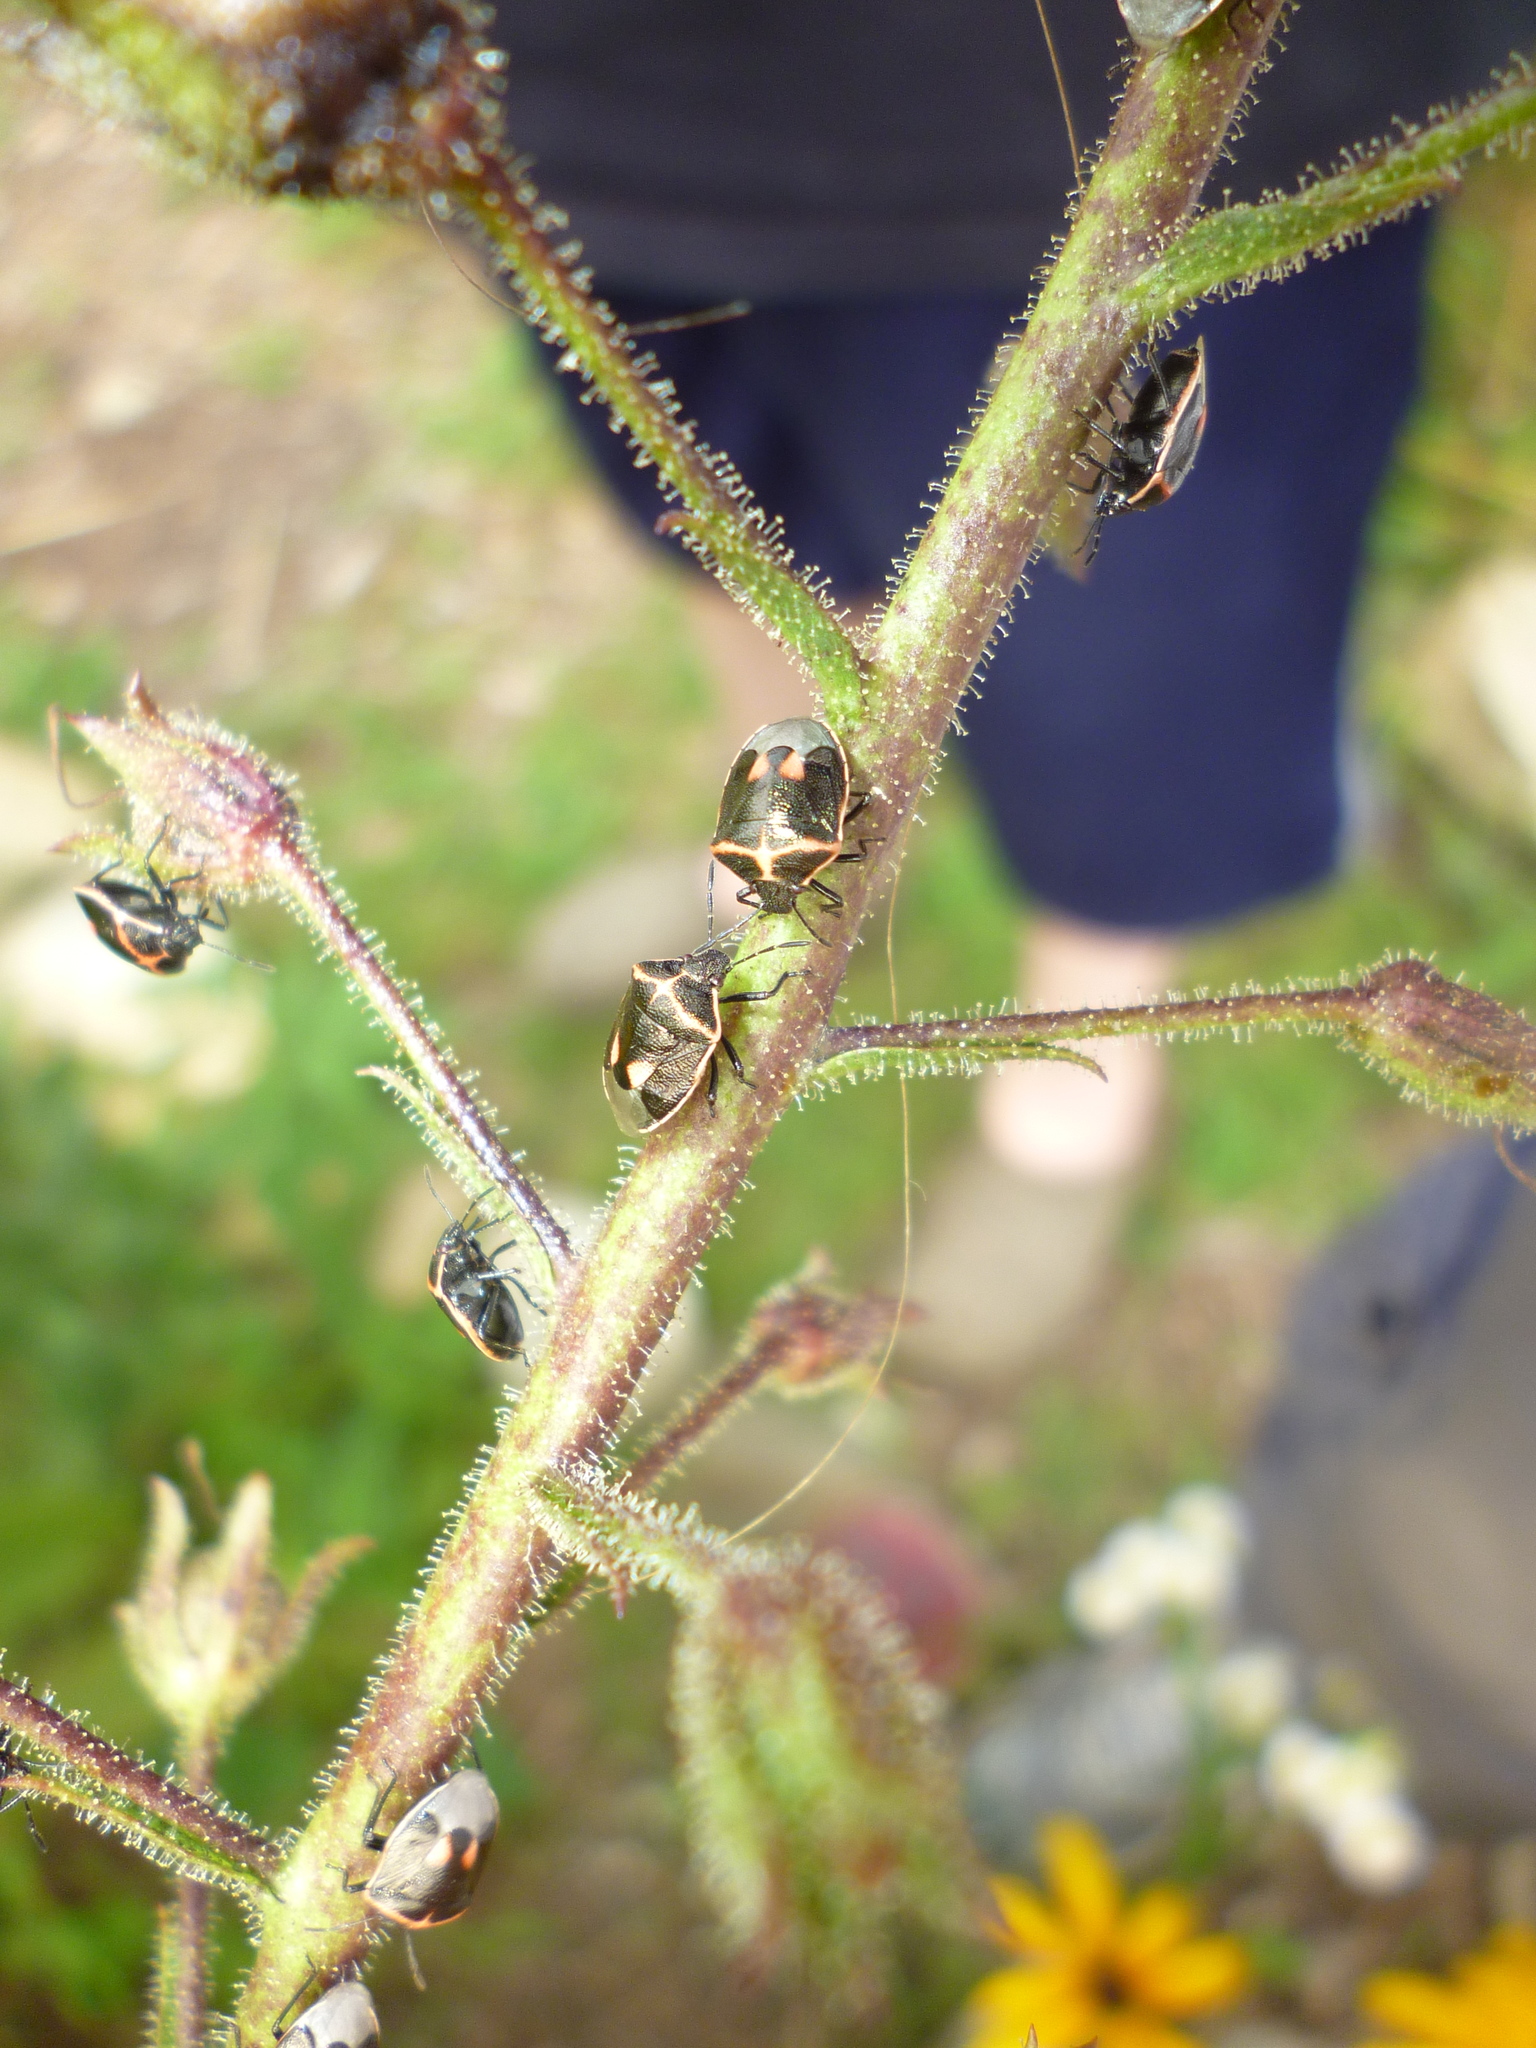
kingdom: Animalia
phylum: Arthropoda
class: Insecta
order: Hemiptera
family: Pentatomidae
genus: Cosmopepla
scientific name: Cosmopepla lintneriana
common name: Twice-stabbed stink bug
